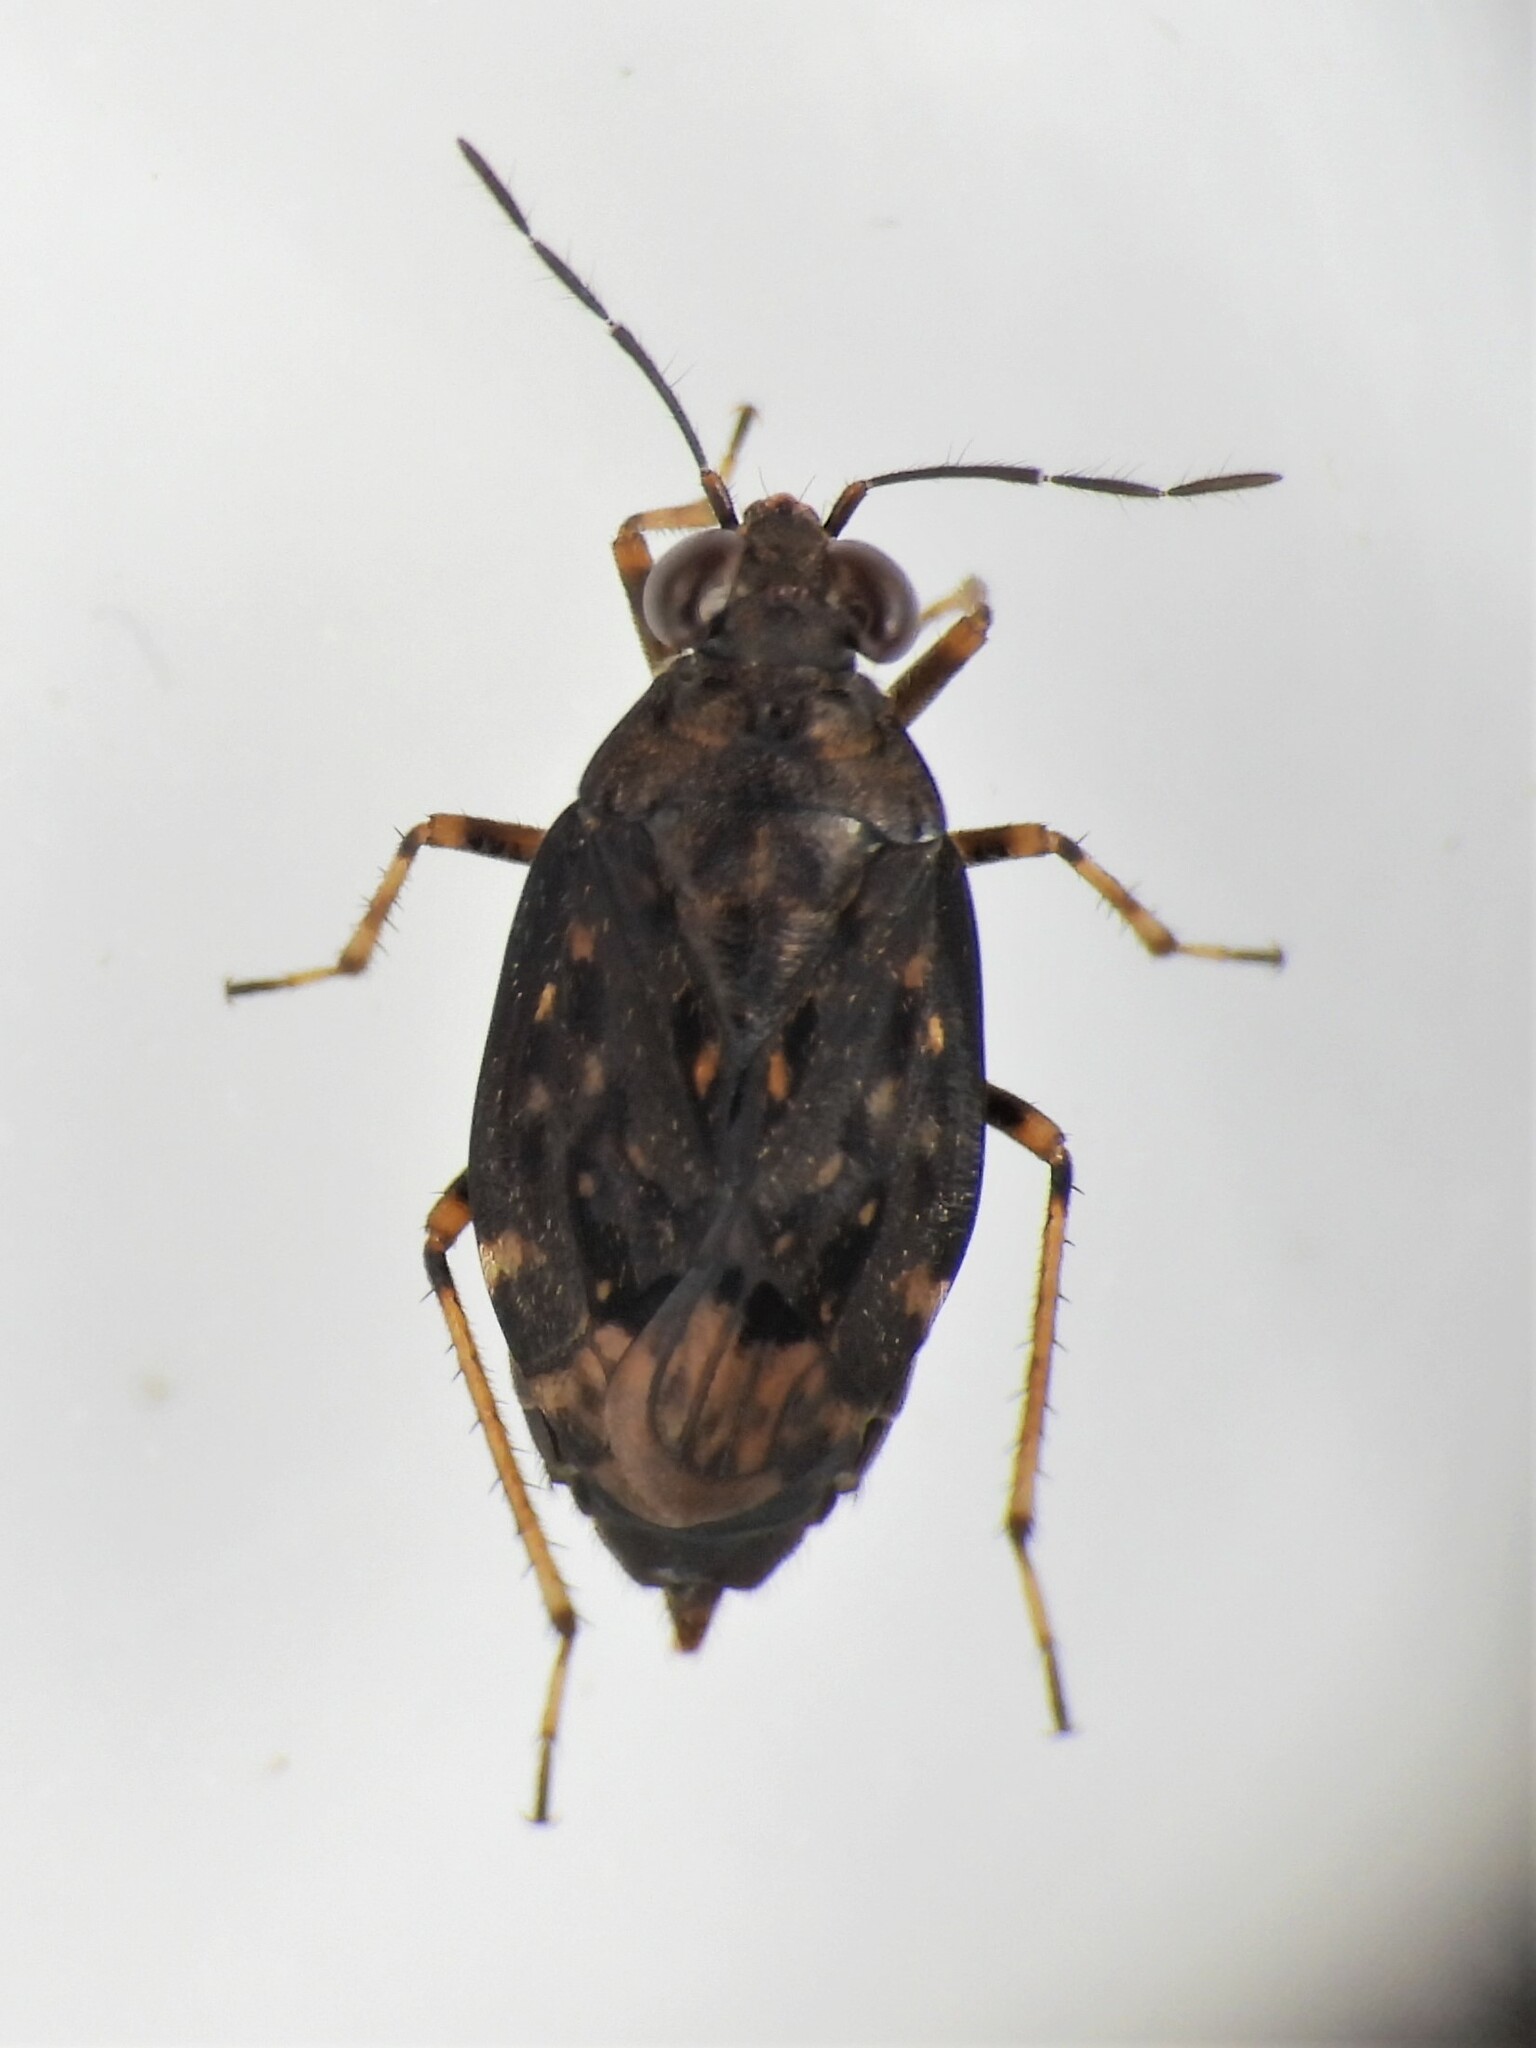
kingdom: Animalia
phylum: Arthropoda
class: Insecta
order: Hemiptera
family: Saldidae
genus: Saldula
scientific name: Saldula orthochila
